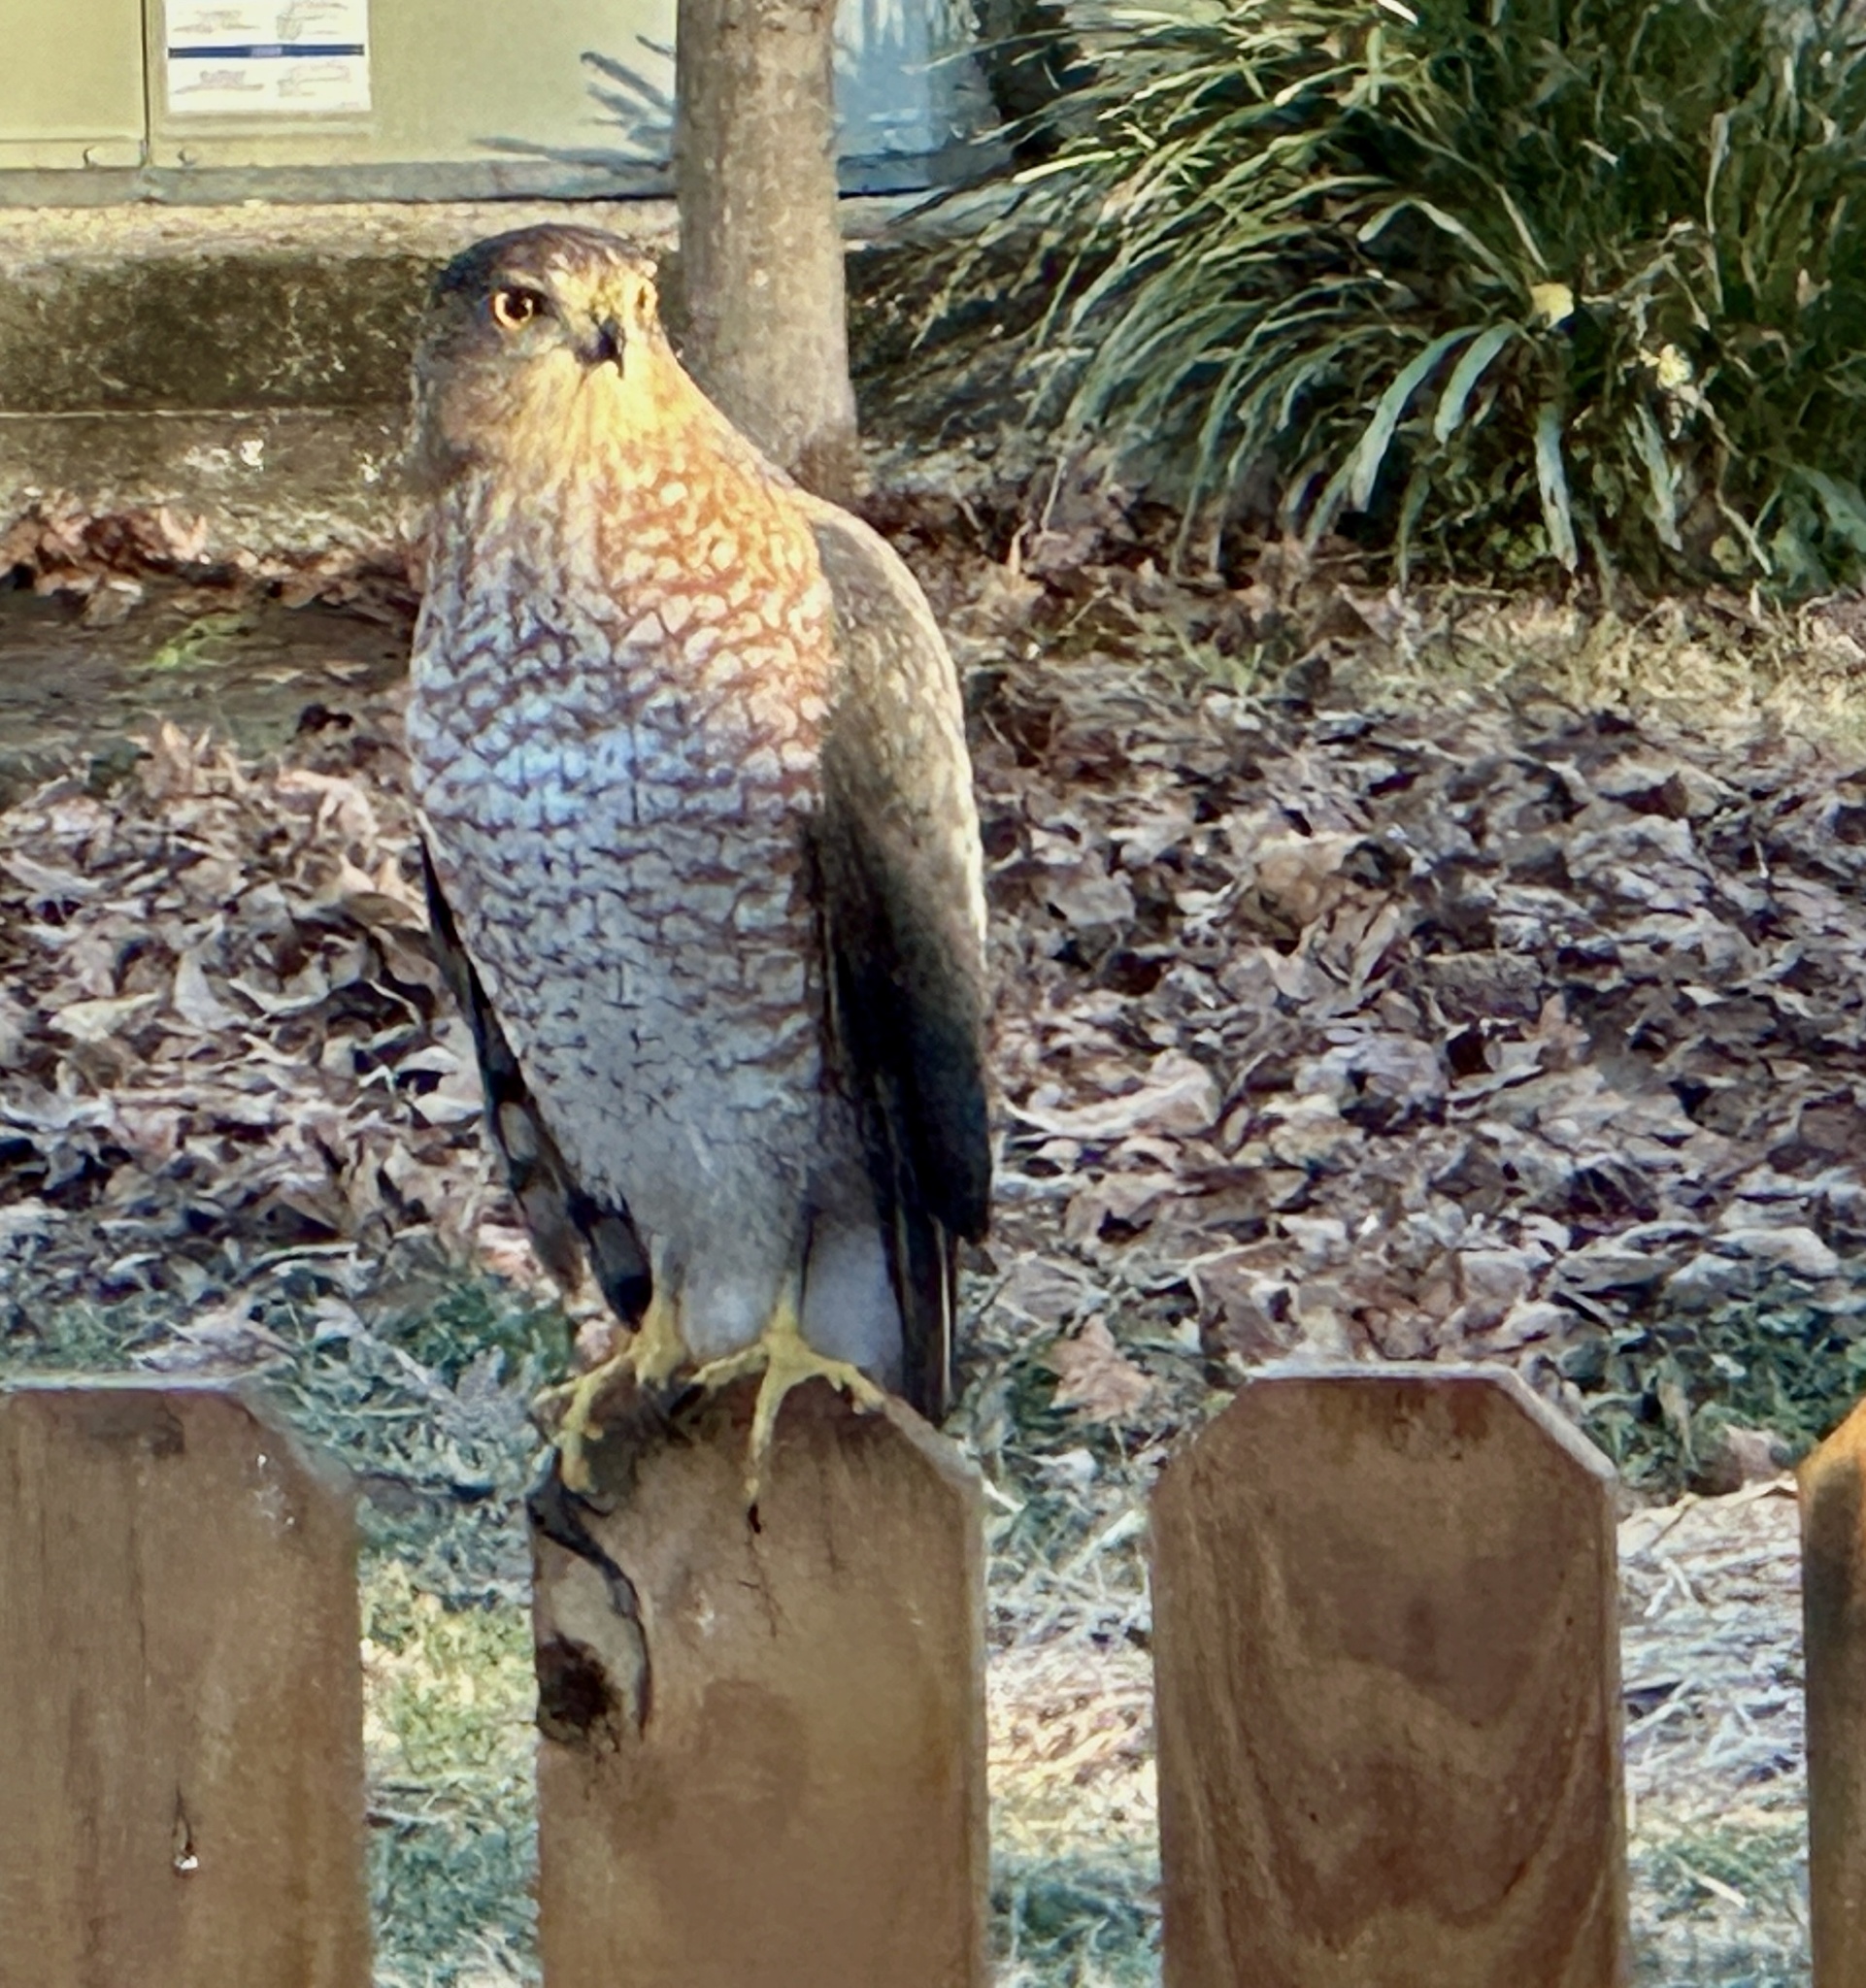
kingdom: Animalia
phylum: Chordata
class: Aves
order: Accipitriformes
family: Accipitridae
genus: Accipiter
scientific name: Accipiter cooperii
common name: Cooper's hawk
